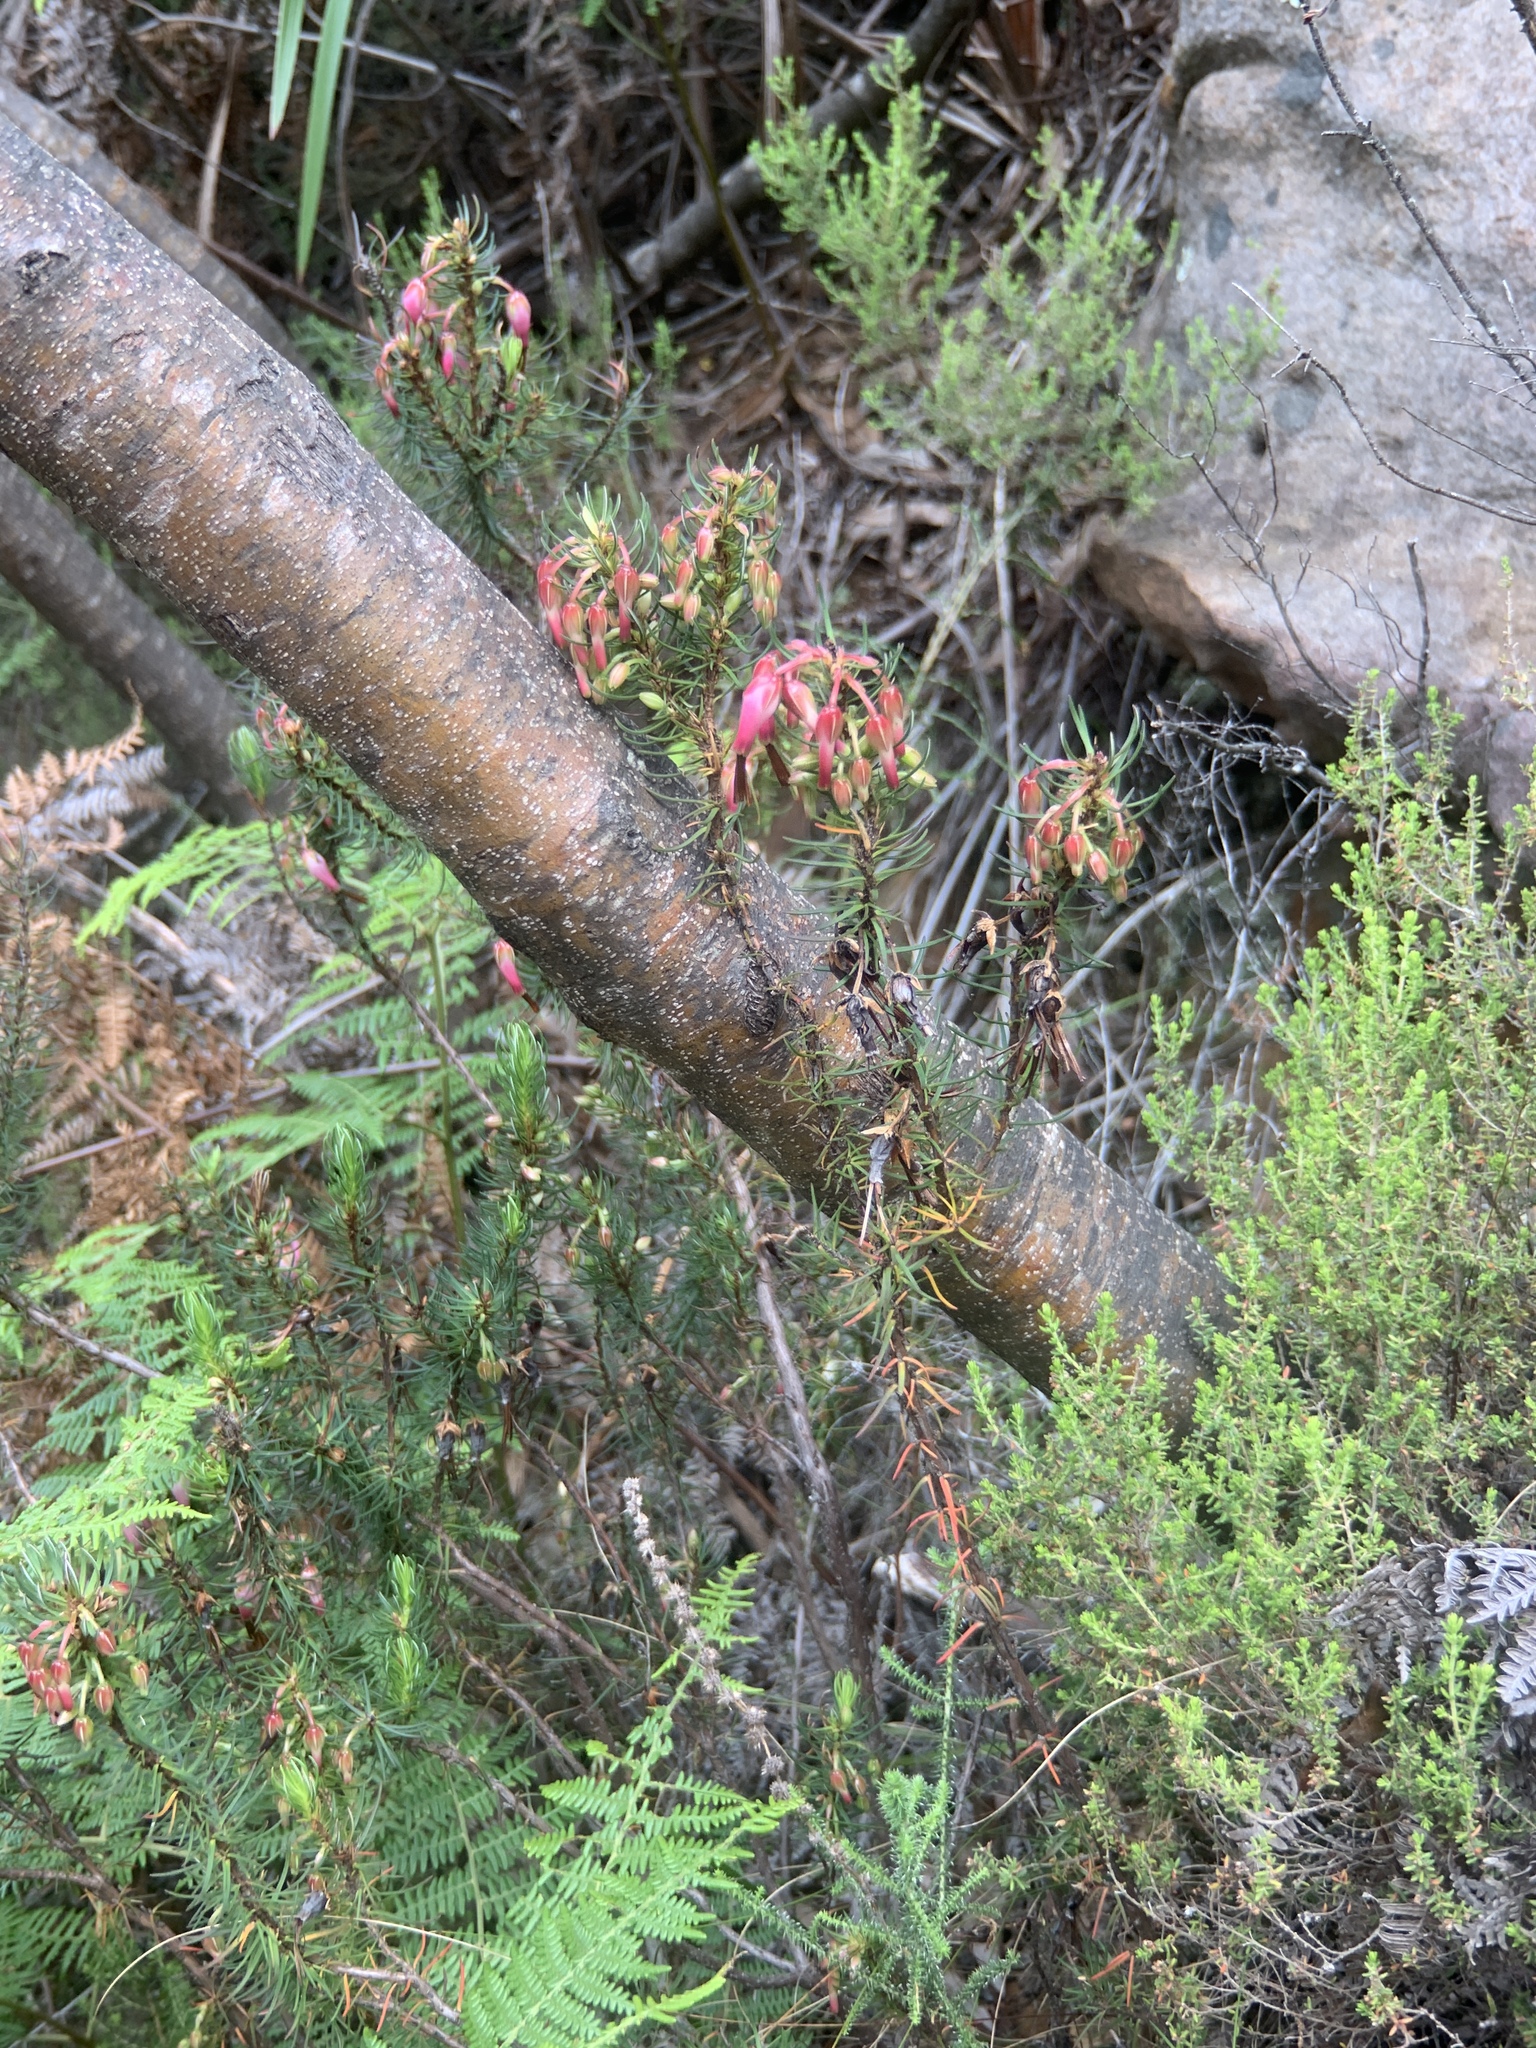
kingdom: Plantae
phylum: Tracheophyta
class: Magnoliopsida
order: Ericales
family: Ericaceae
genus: Erica
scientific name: Erica plukenetii
